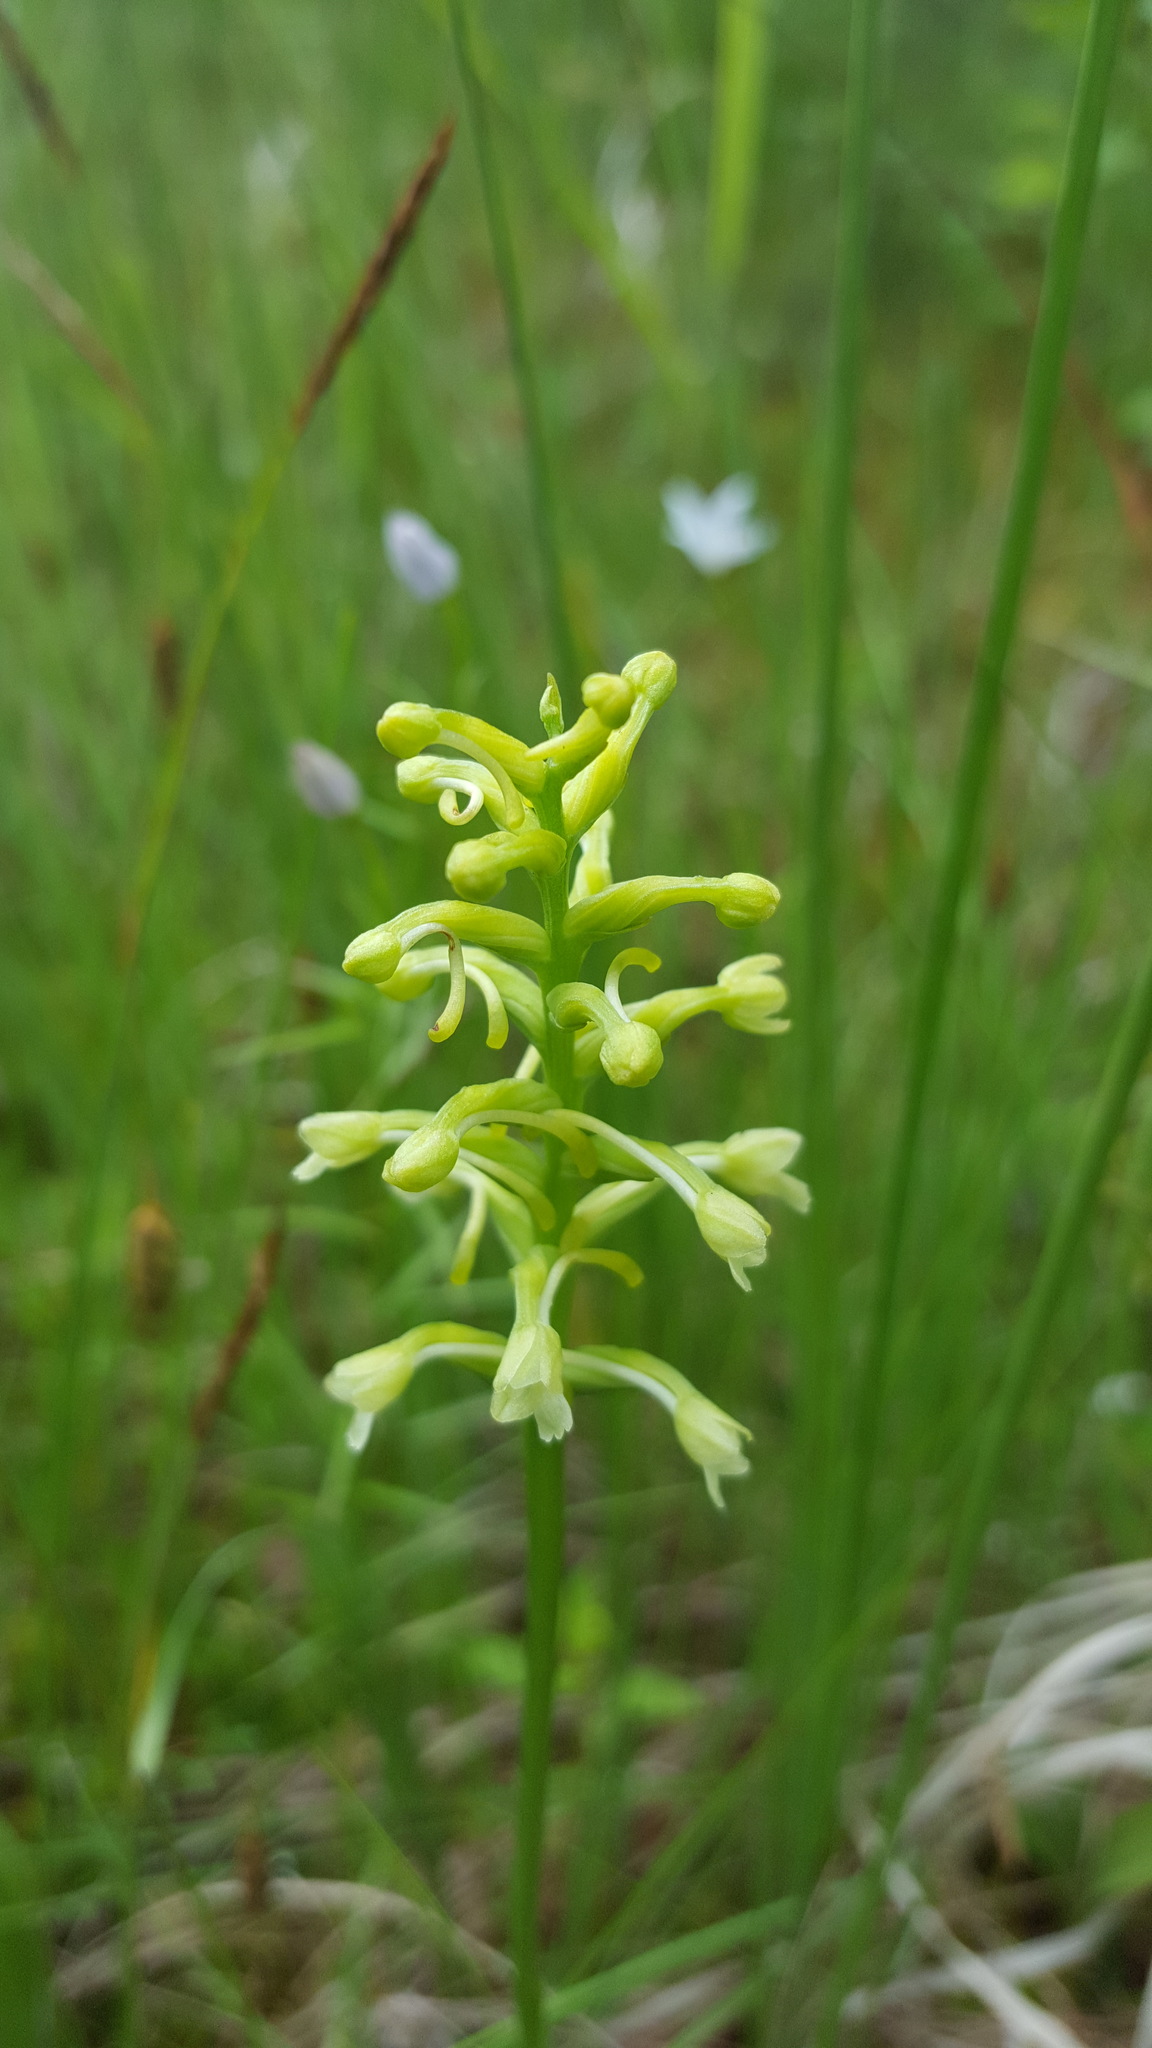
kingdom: Plantae
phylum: Tracheophyta
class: Liliopsida
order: Asparagales
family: Orchidaceae
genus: Platanthera
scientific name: Platanthera clavellata
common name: Club-spur orchid
